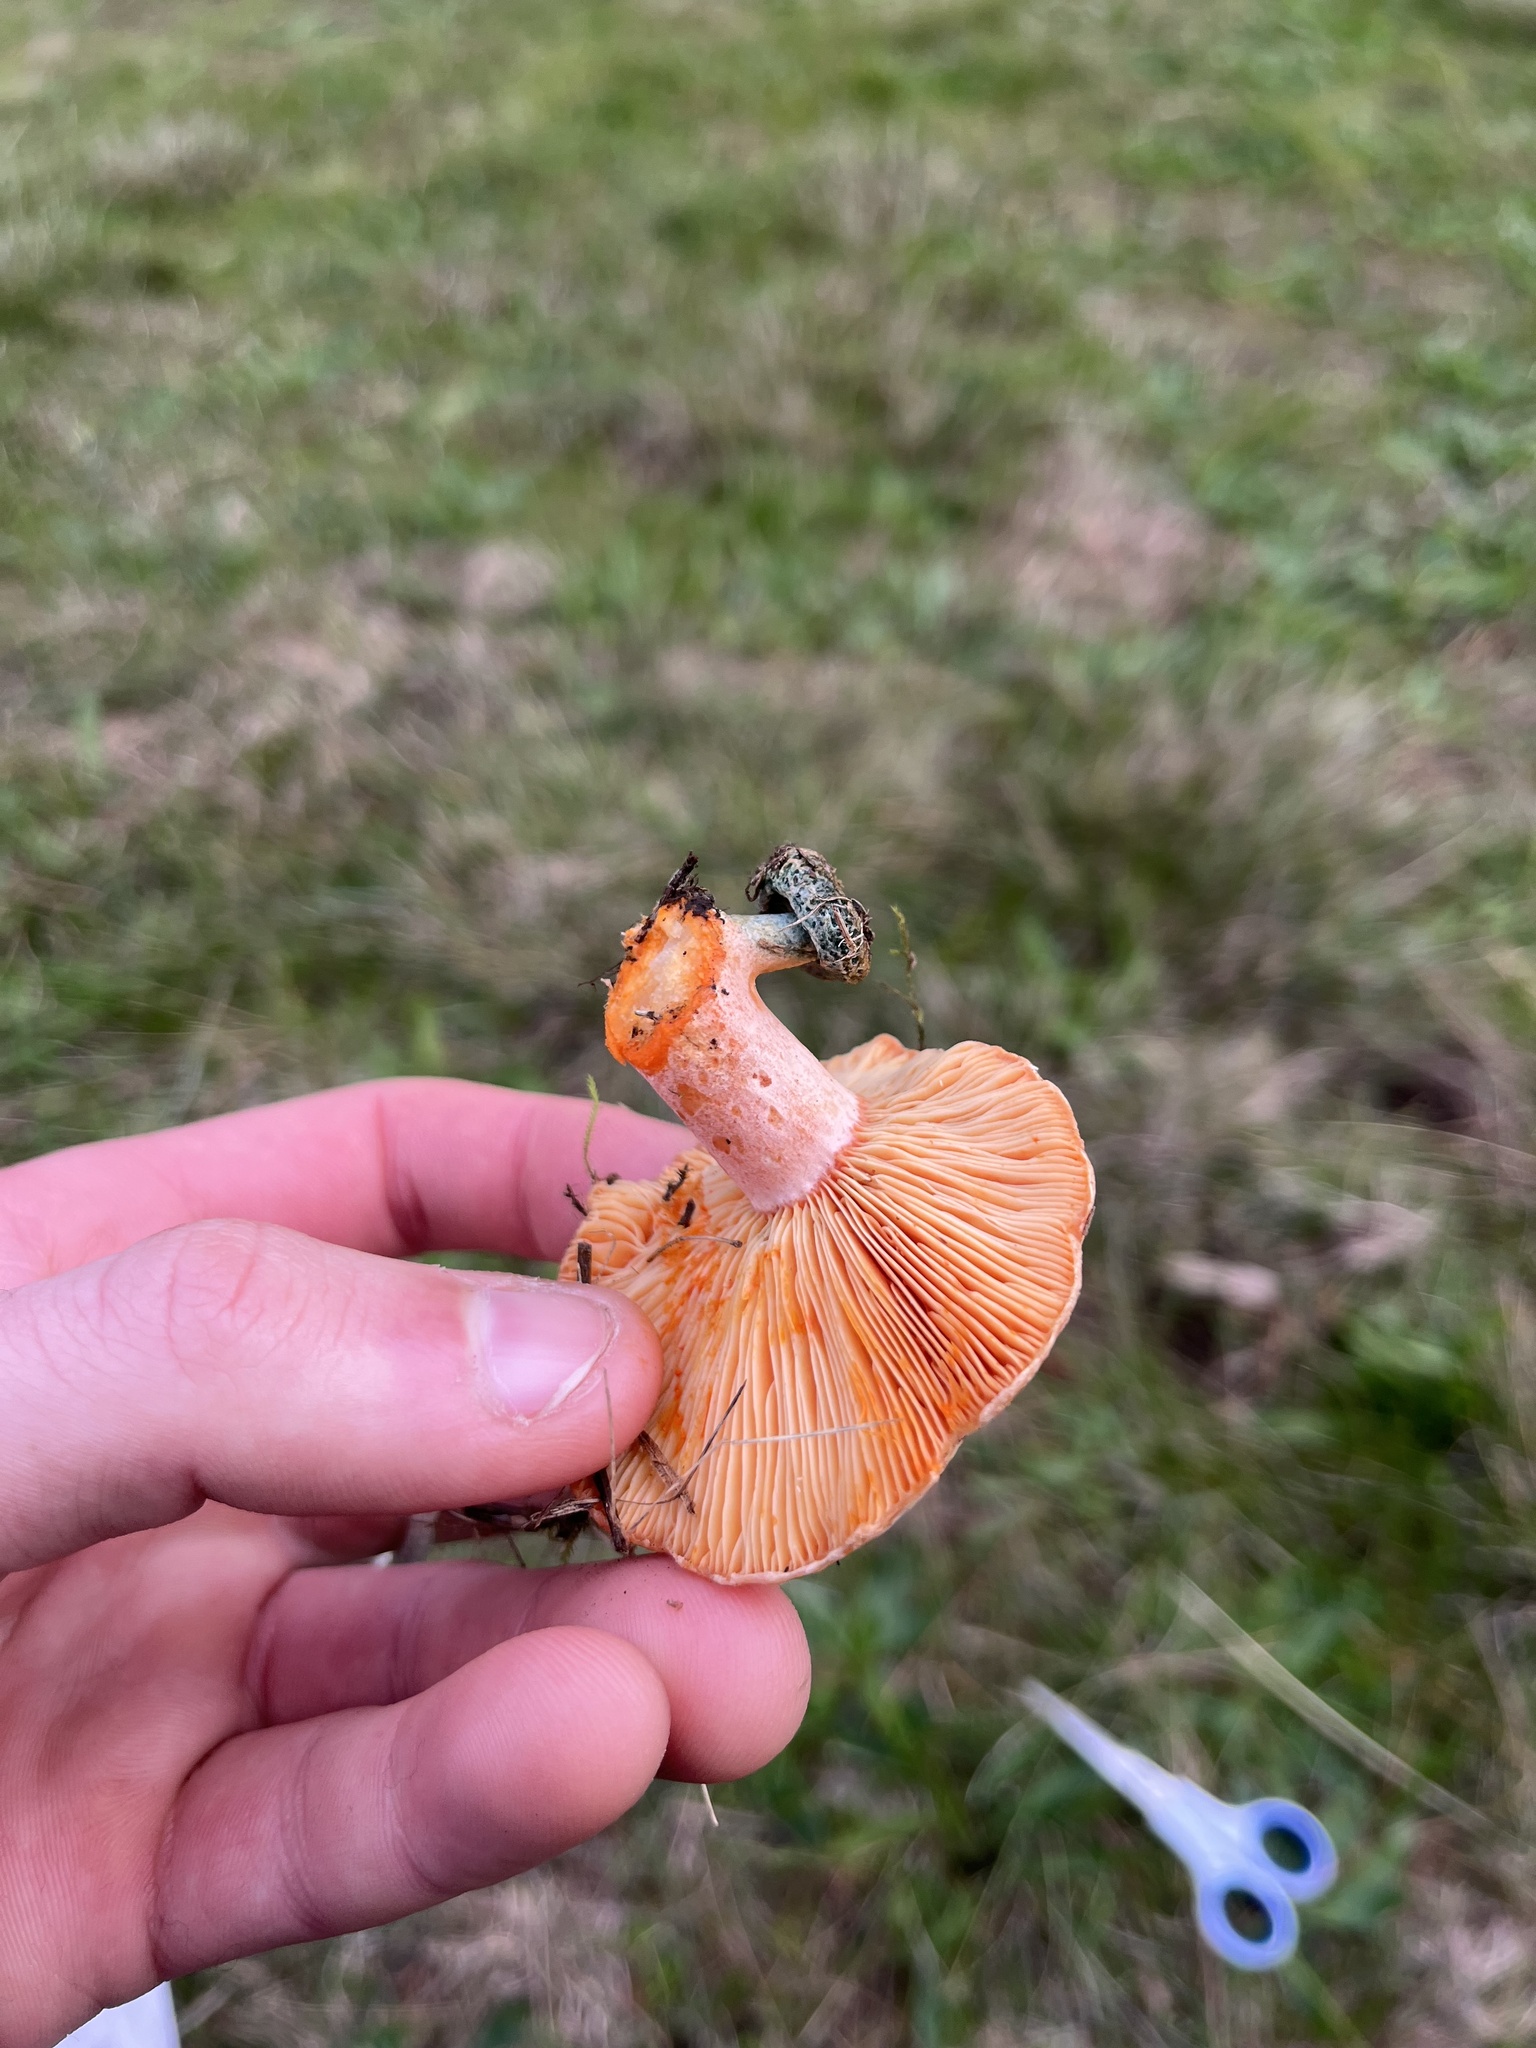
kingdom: Fungi
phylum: Basidiomycota
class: Agaricomycetes
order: Russulales
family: Russulaceae
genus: Lactarius
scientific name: Lactarius deliciosus
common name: Saffron milk-cap
